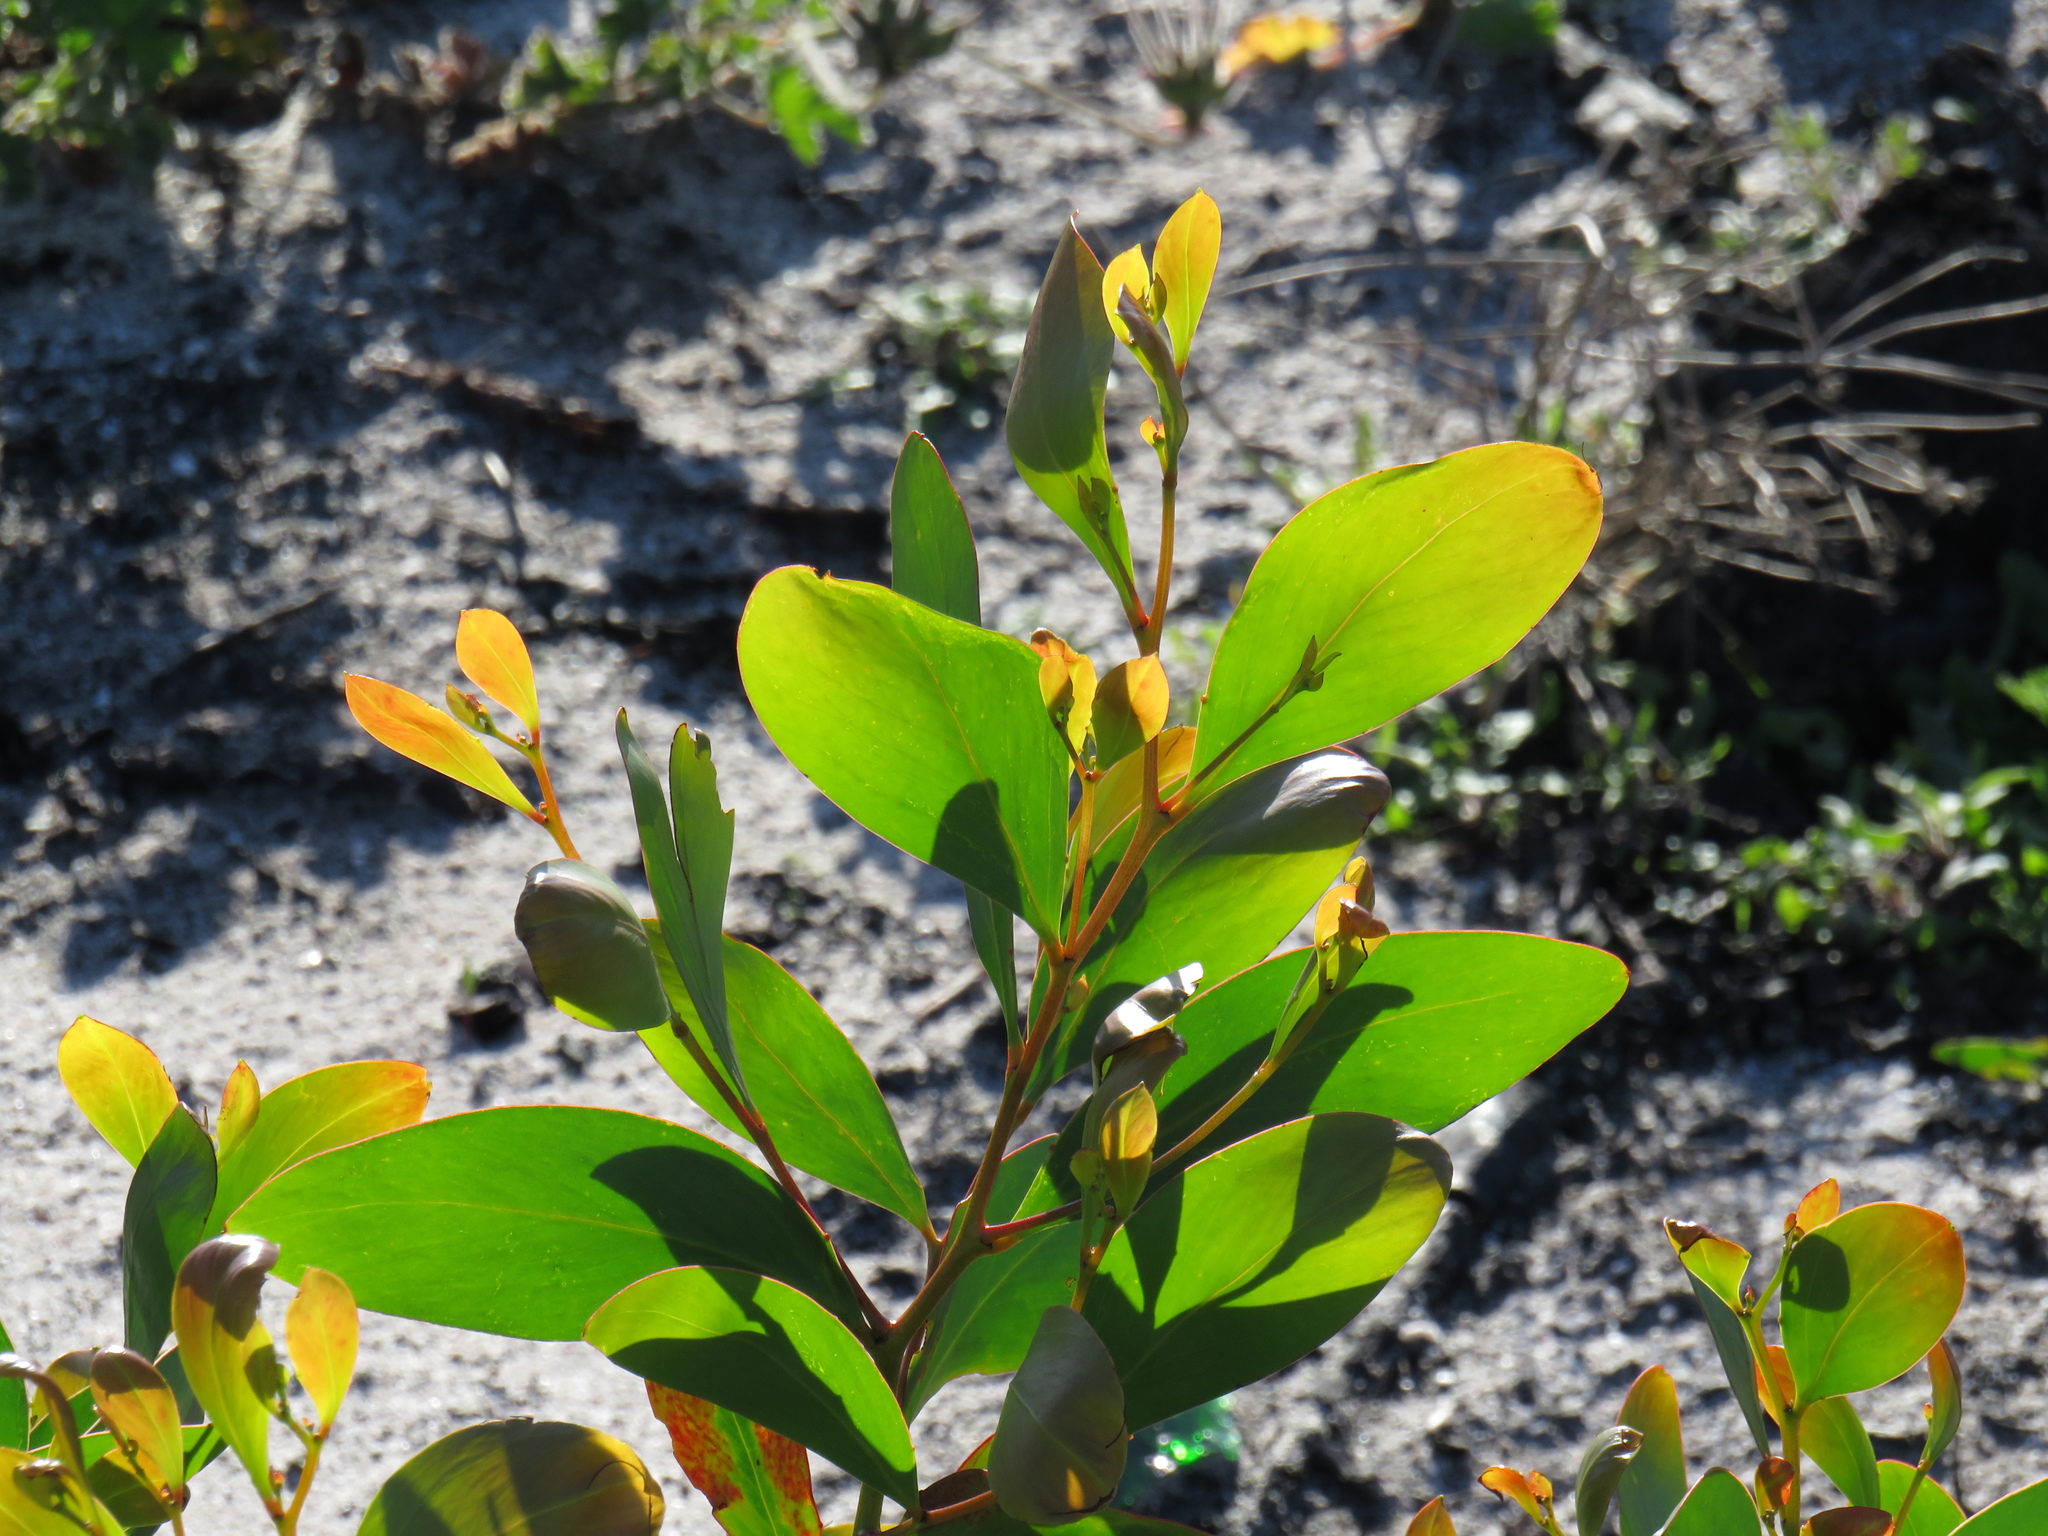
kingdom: Plantae
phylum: Tracheophyta
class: Magnoliopsida
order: Fabales
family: Fabaceae
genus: Acacia
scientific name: Acacia pycnantha
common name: Golden wattle
